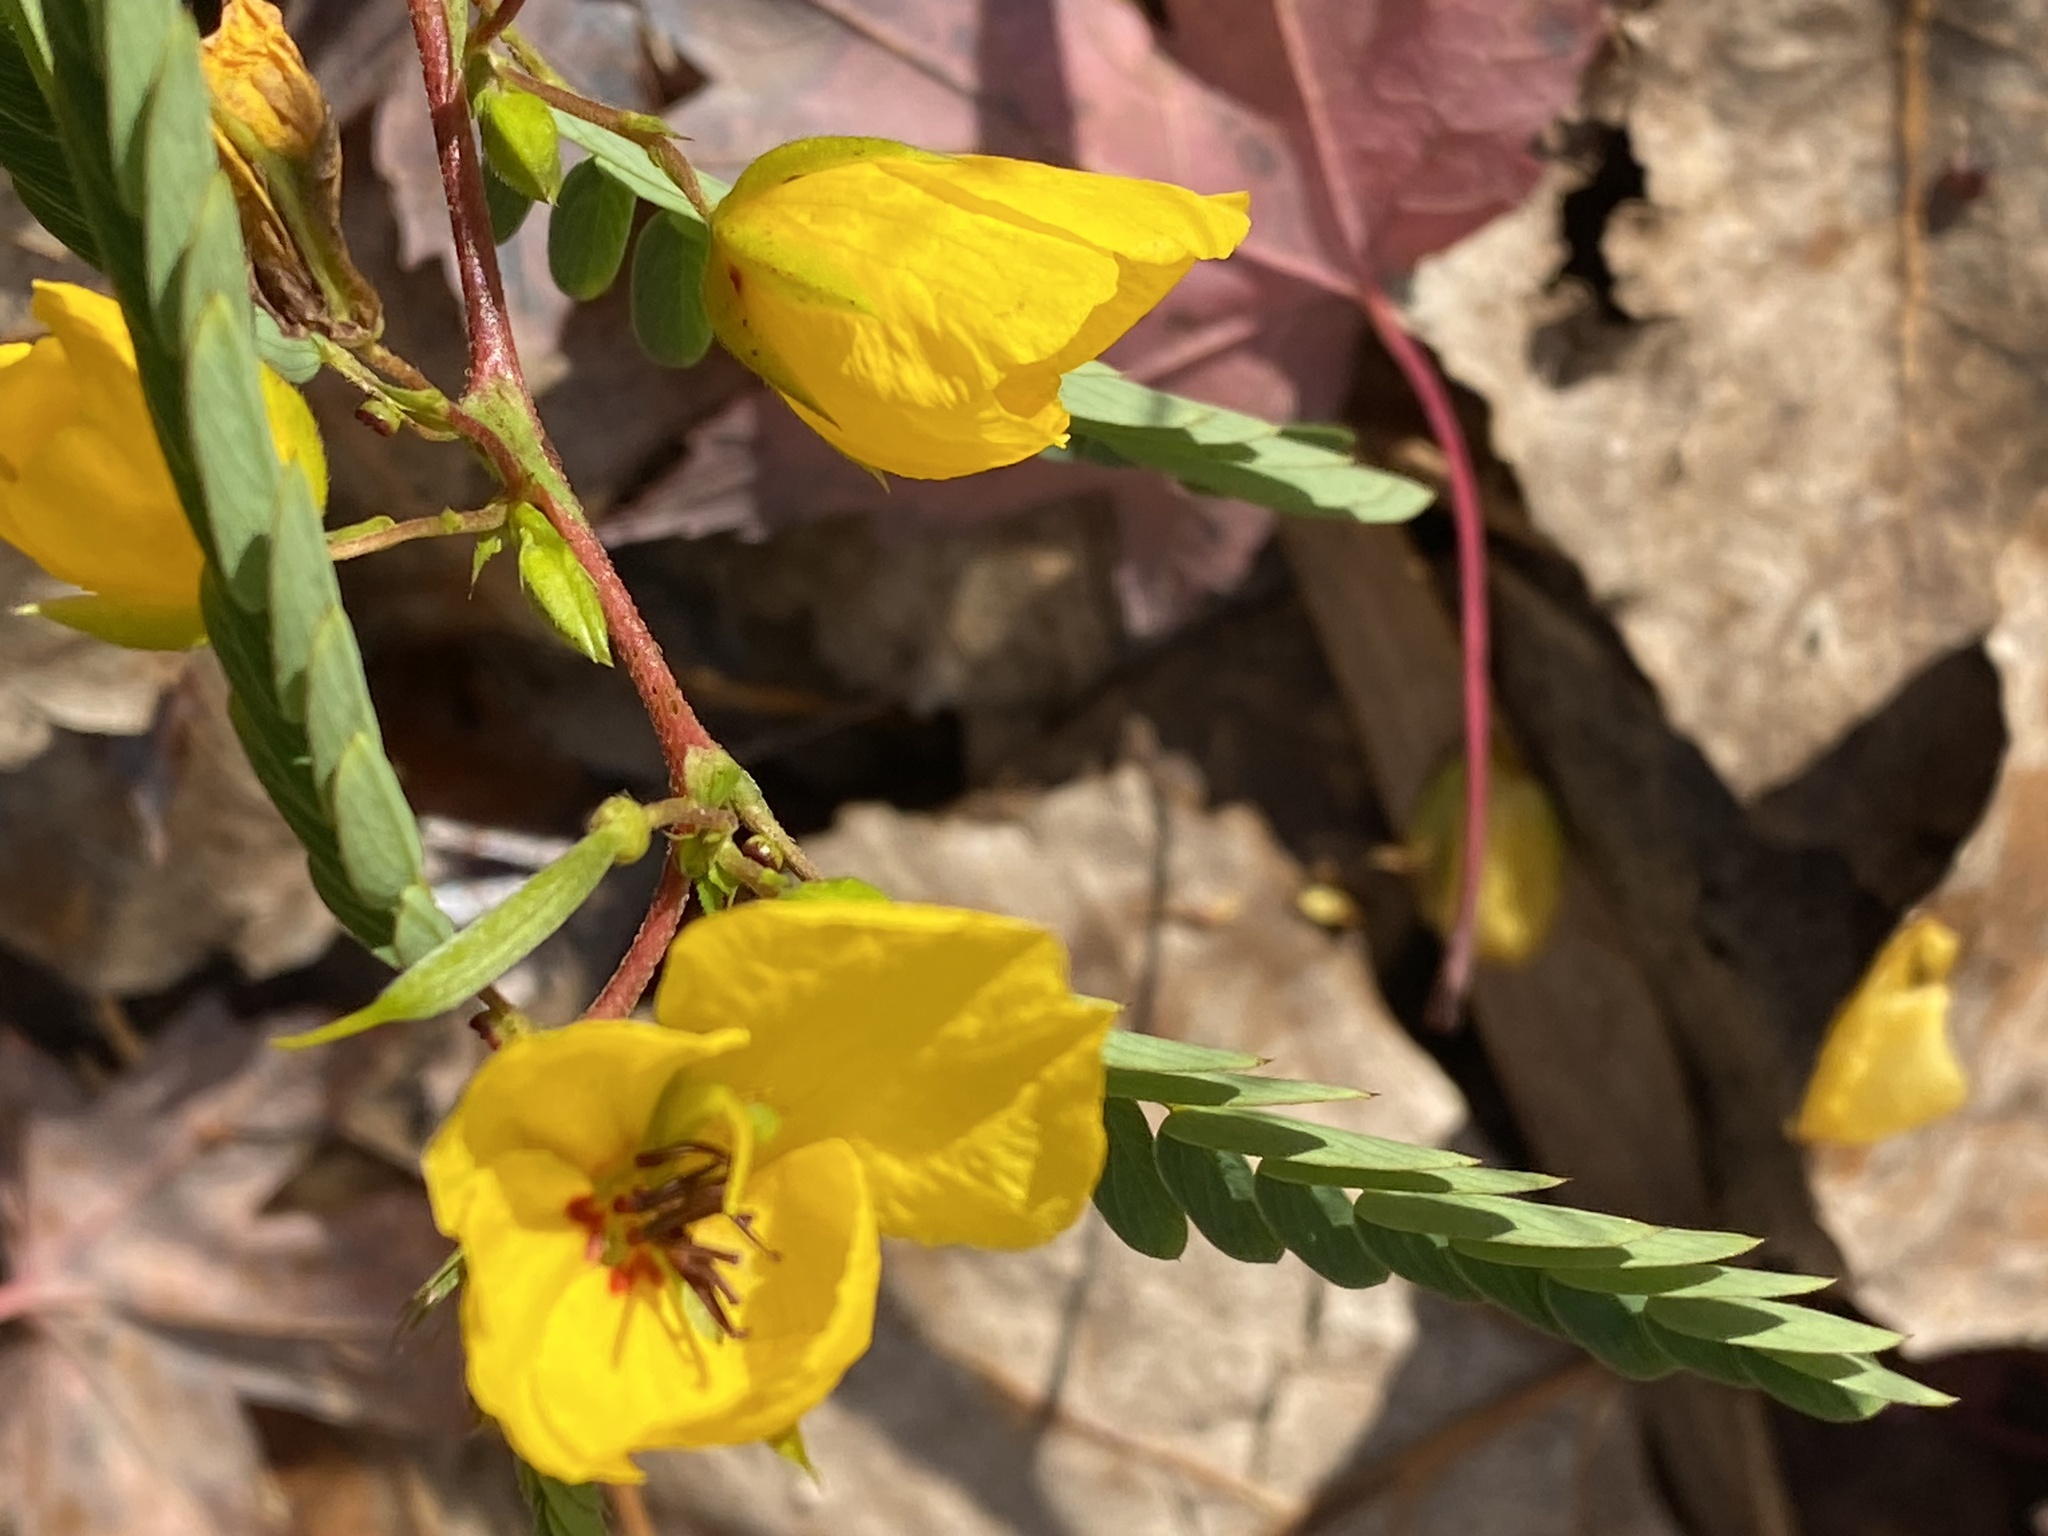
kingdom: Plantae
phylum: Tracheophyta
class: Magnoliopsida
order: Fabales
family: Fabaceae
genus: Chamaecrista
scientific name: Chamaecrista fasciculata
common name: Golden cassia
